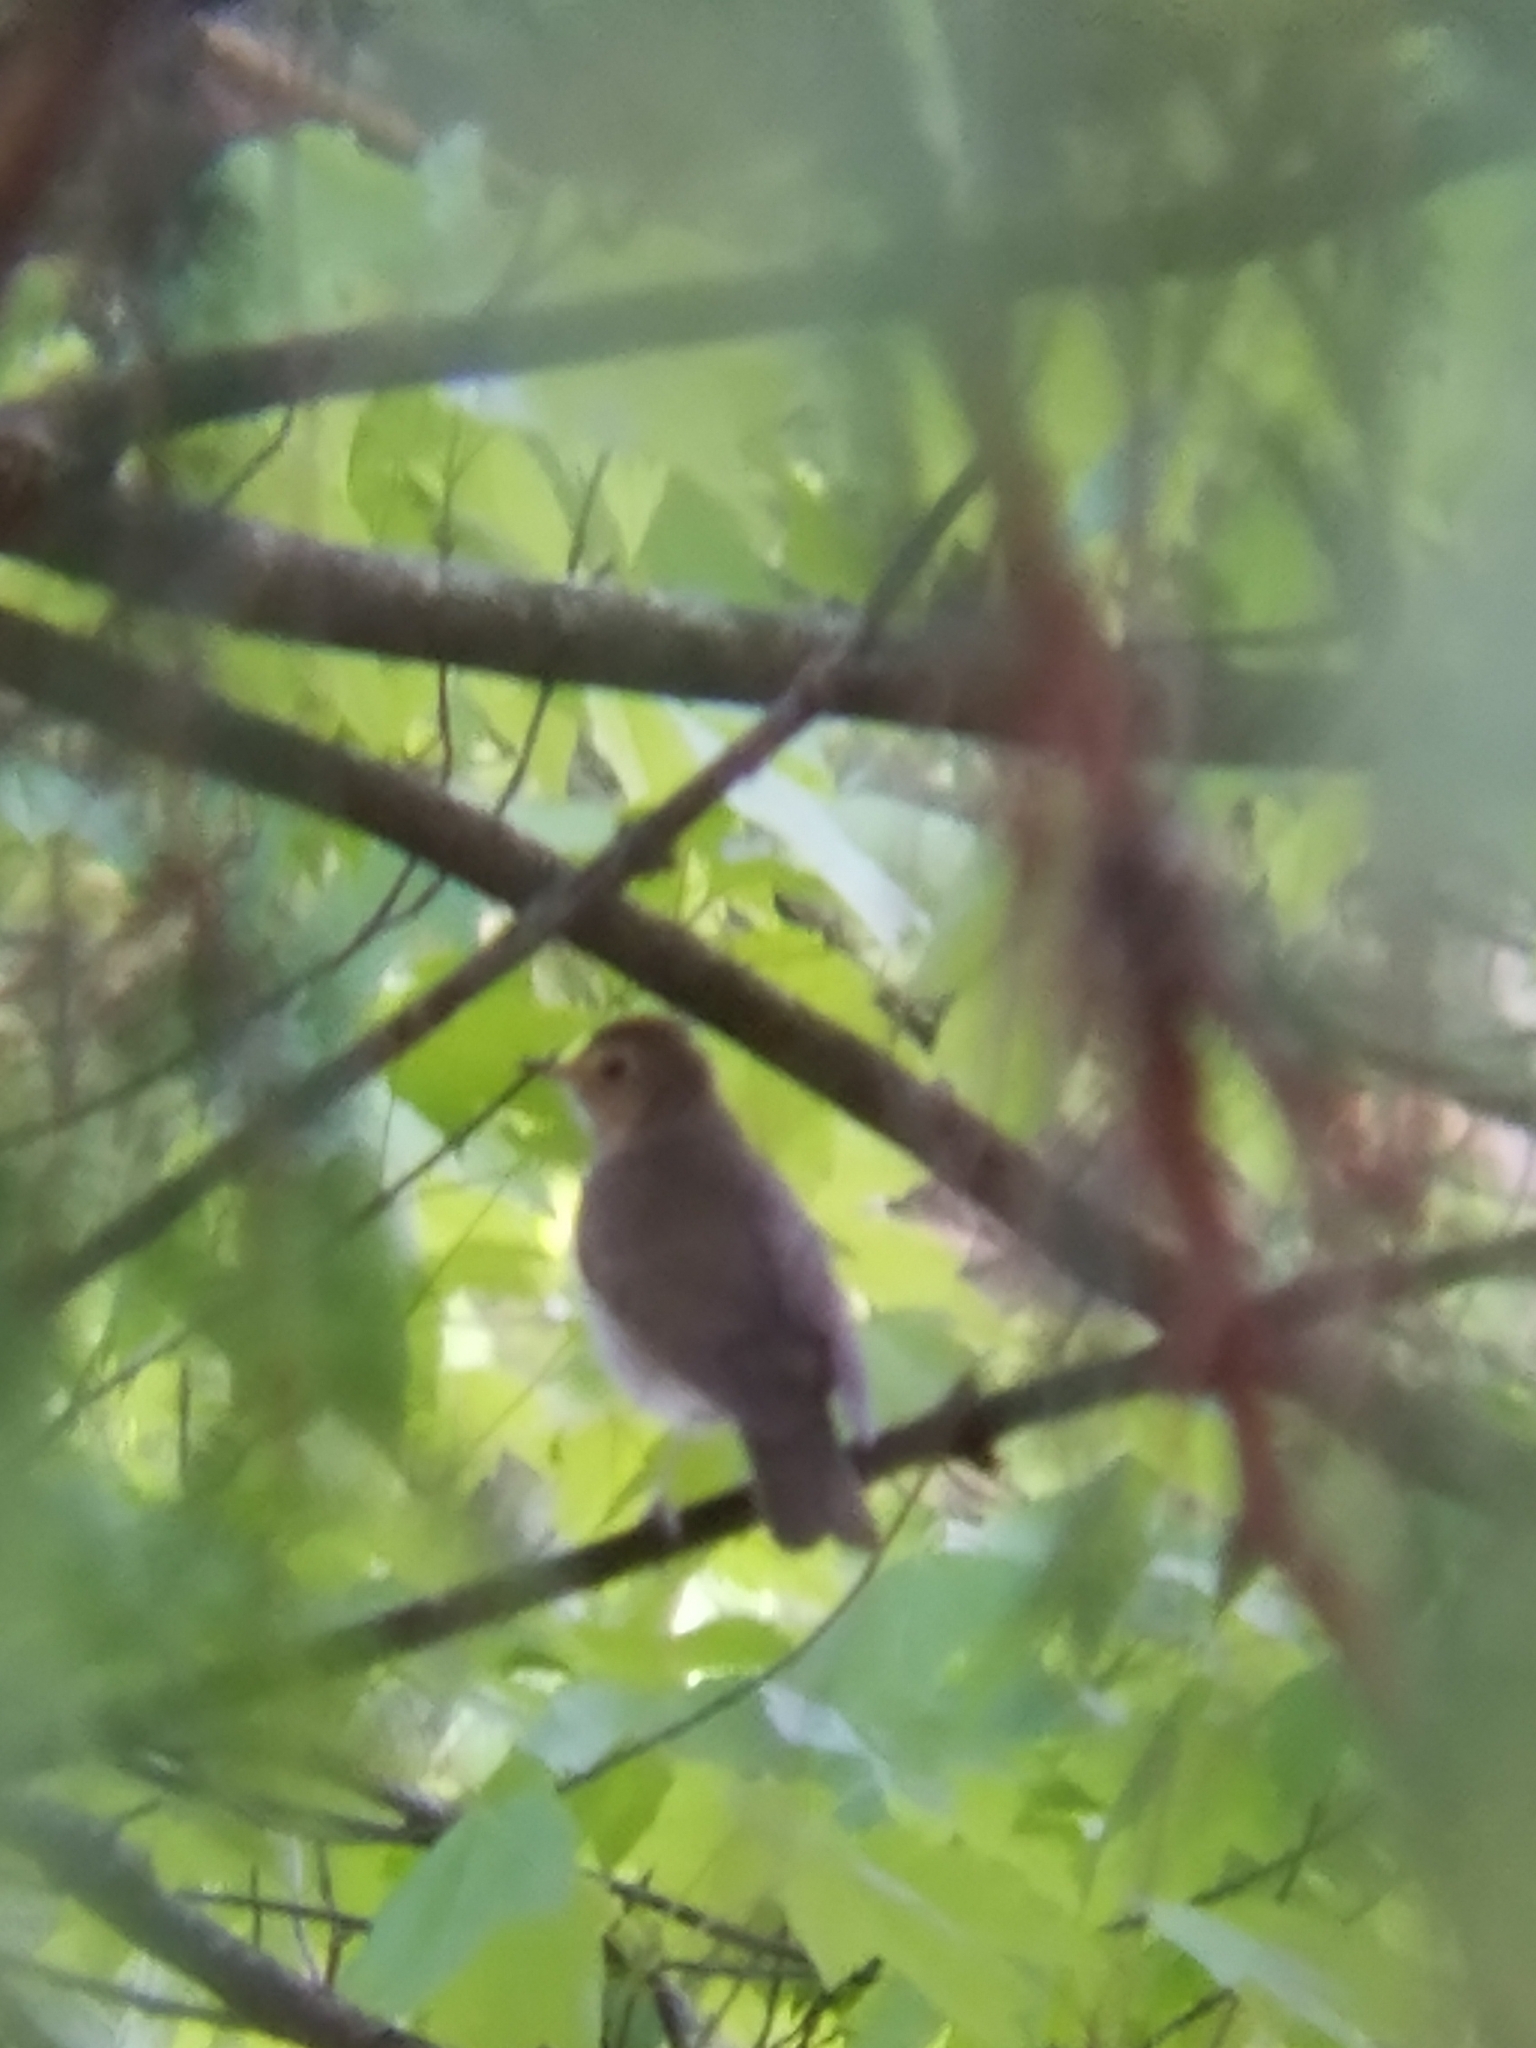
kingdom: Animalia
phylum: Chordata
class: Aves
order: Passeriformes
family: Turdidae
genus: Catharus
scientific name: Catharus ustulatus
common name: Swainson's thrush
